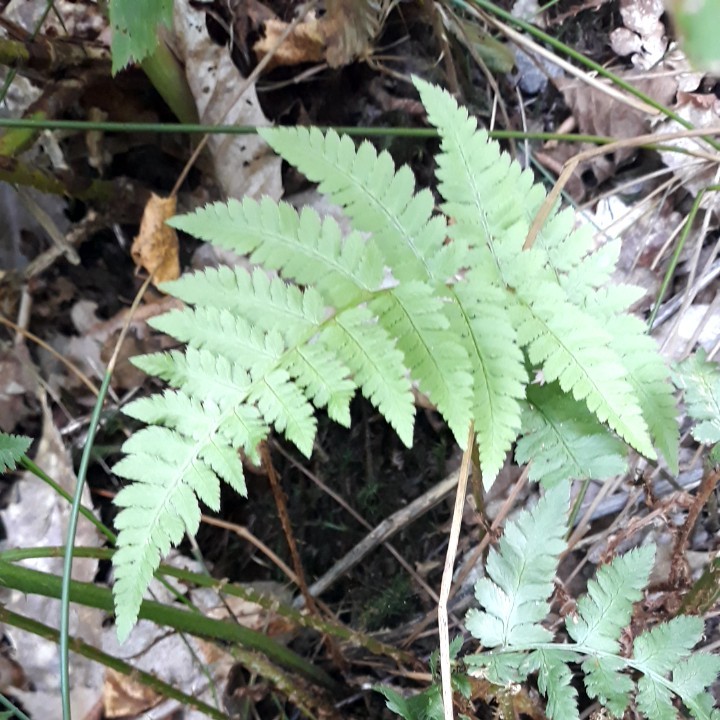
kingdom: Plantae
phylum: Tracheophyta
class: Polypodiopsida
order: Polypodiales
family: Dryopteridaceae
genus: Dryopteris
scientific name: Dryopteris
